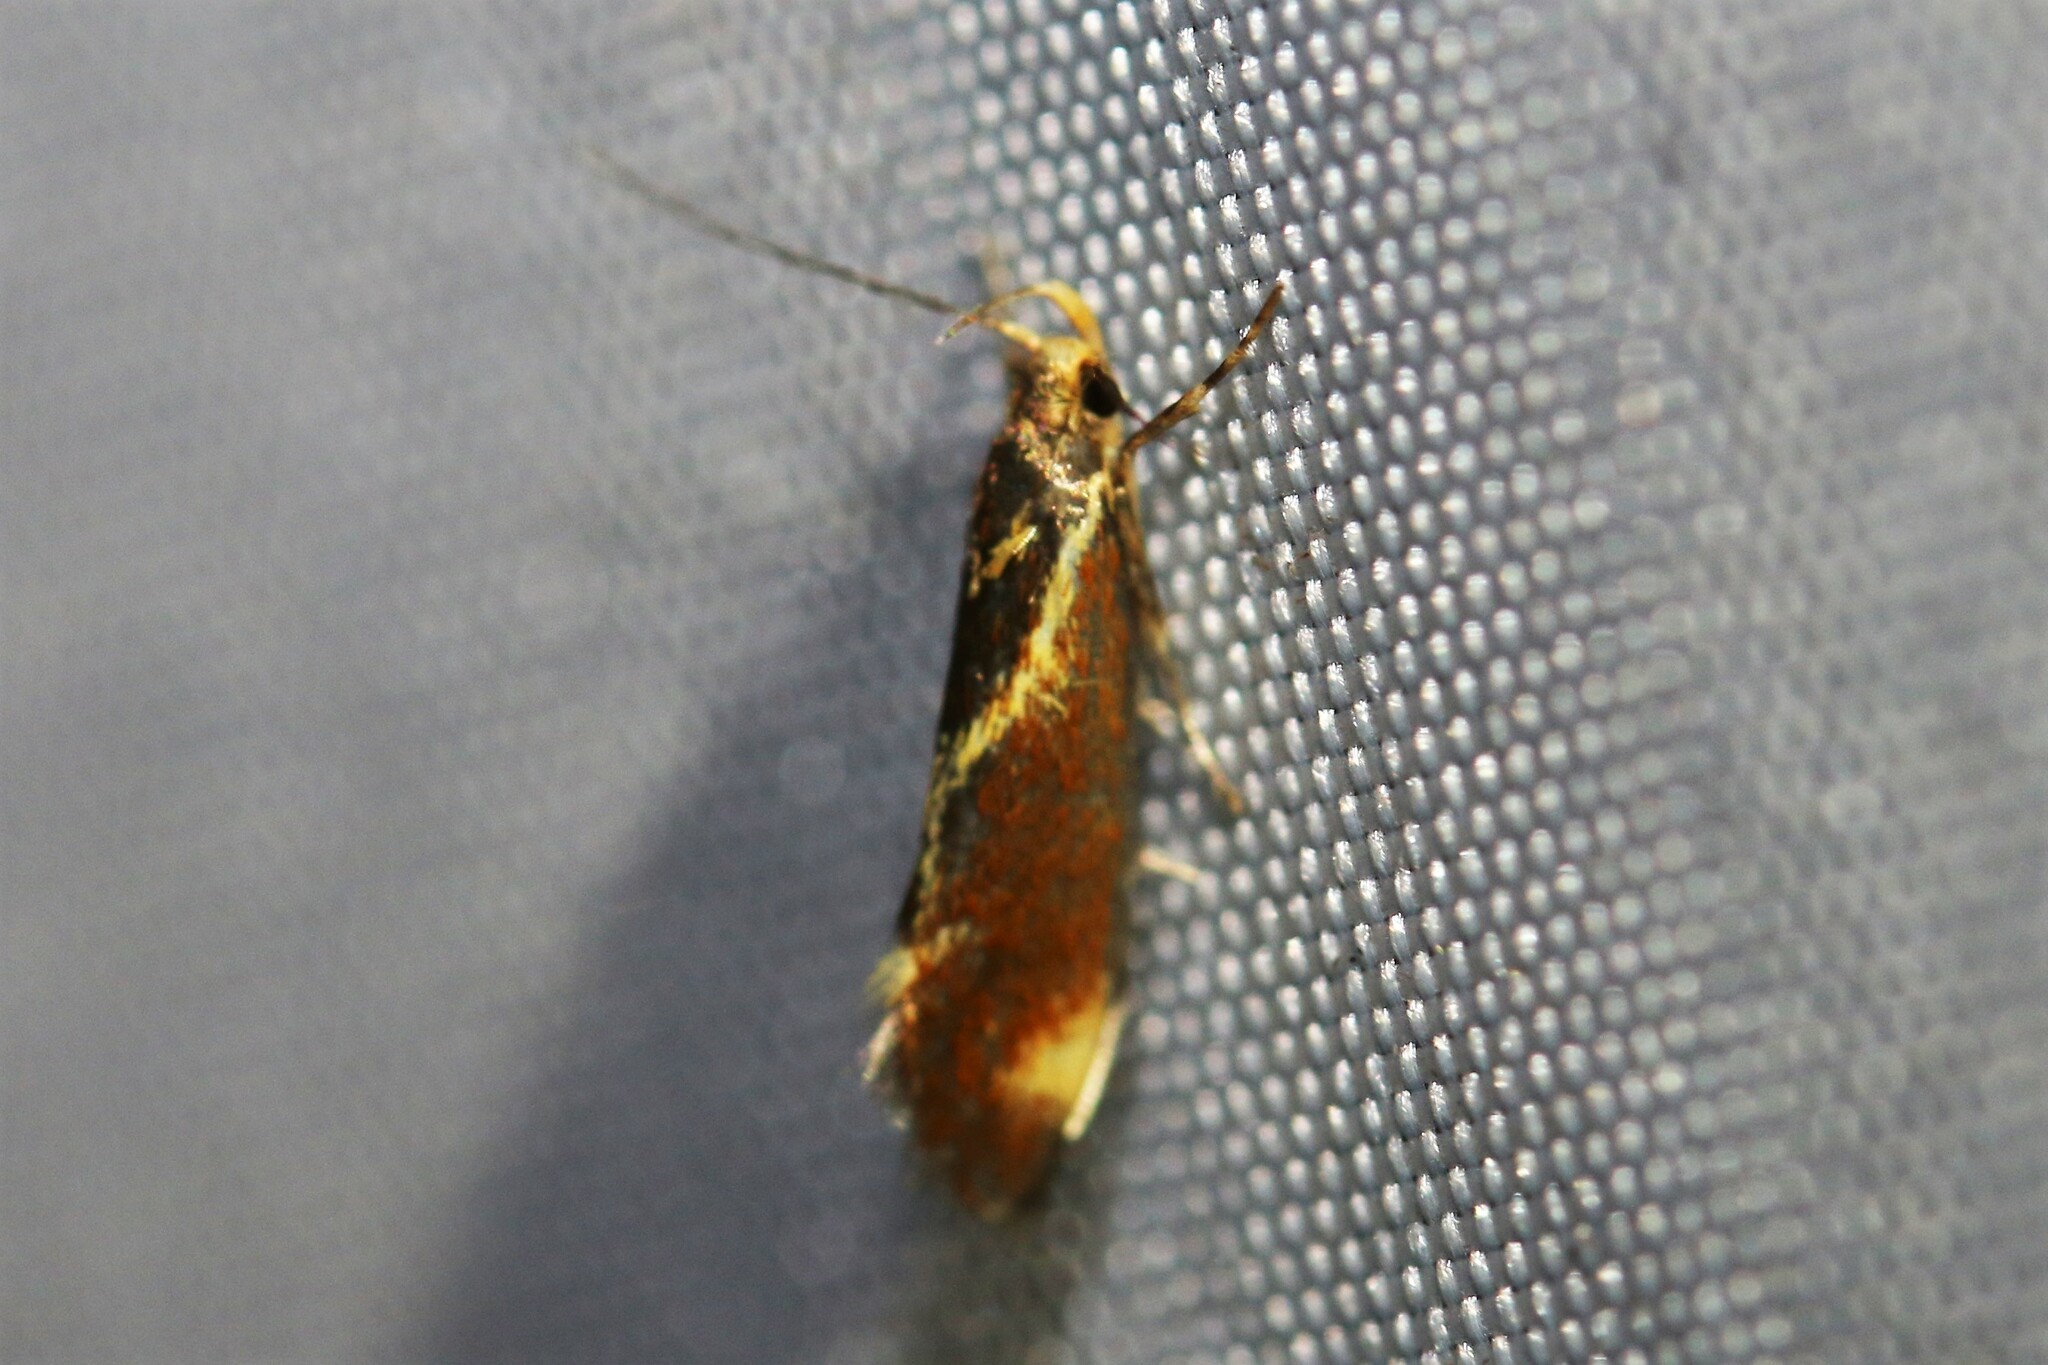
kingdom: Animalia
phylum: Arthropoda
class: Insecta
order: Lepidoptera
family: Oecophoridae
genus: Borkhausenia
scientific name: Borkhausenia italica
